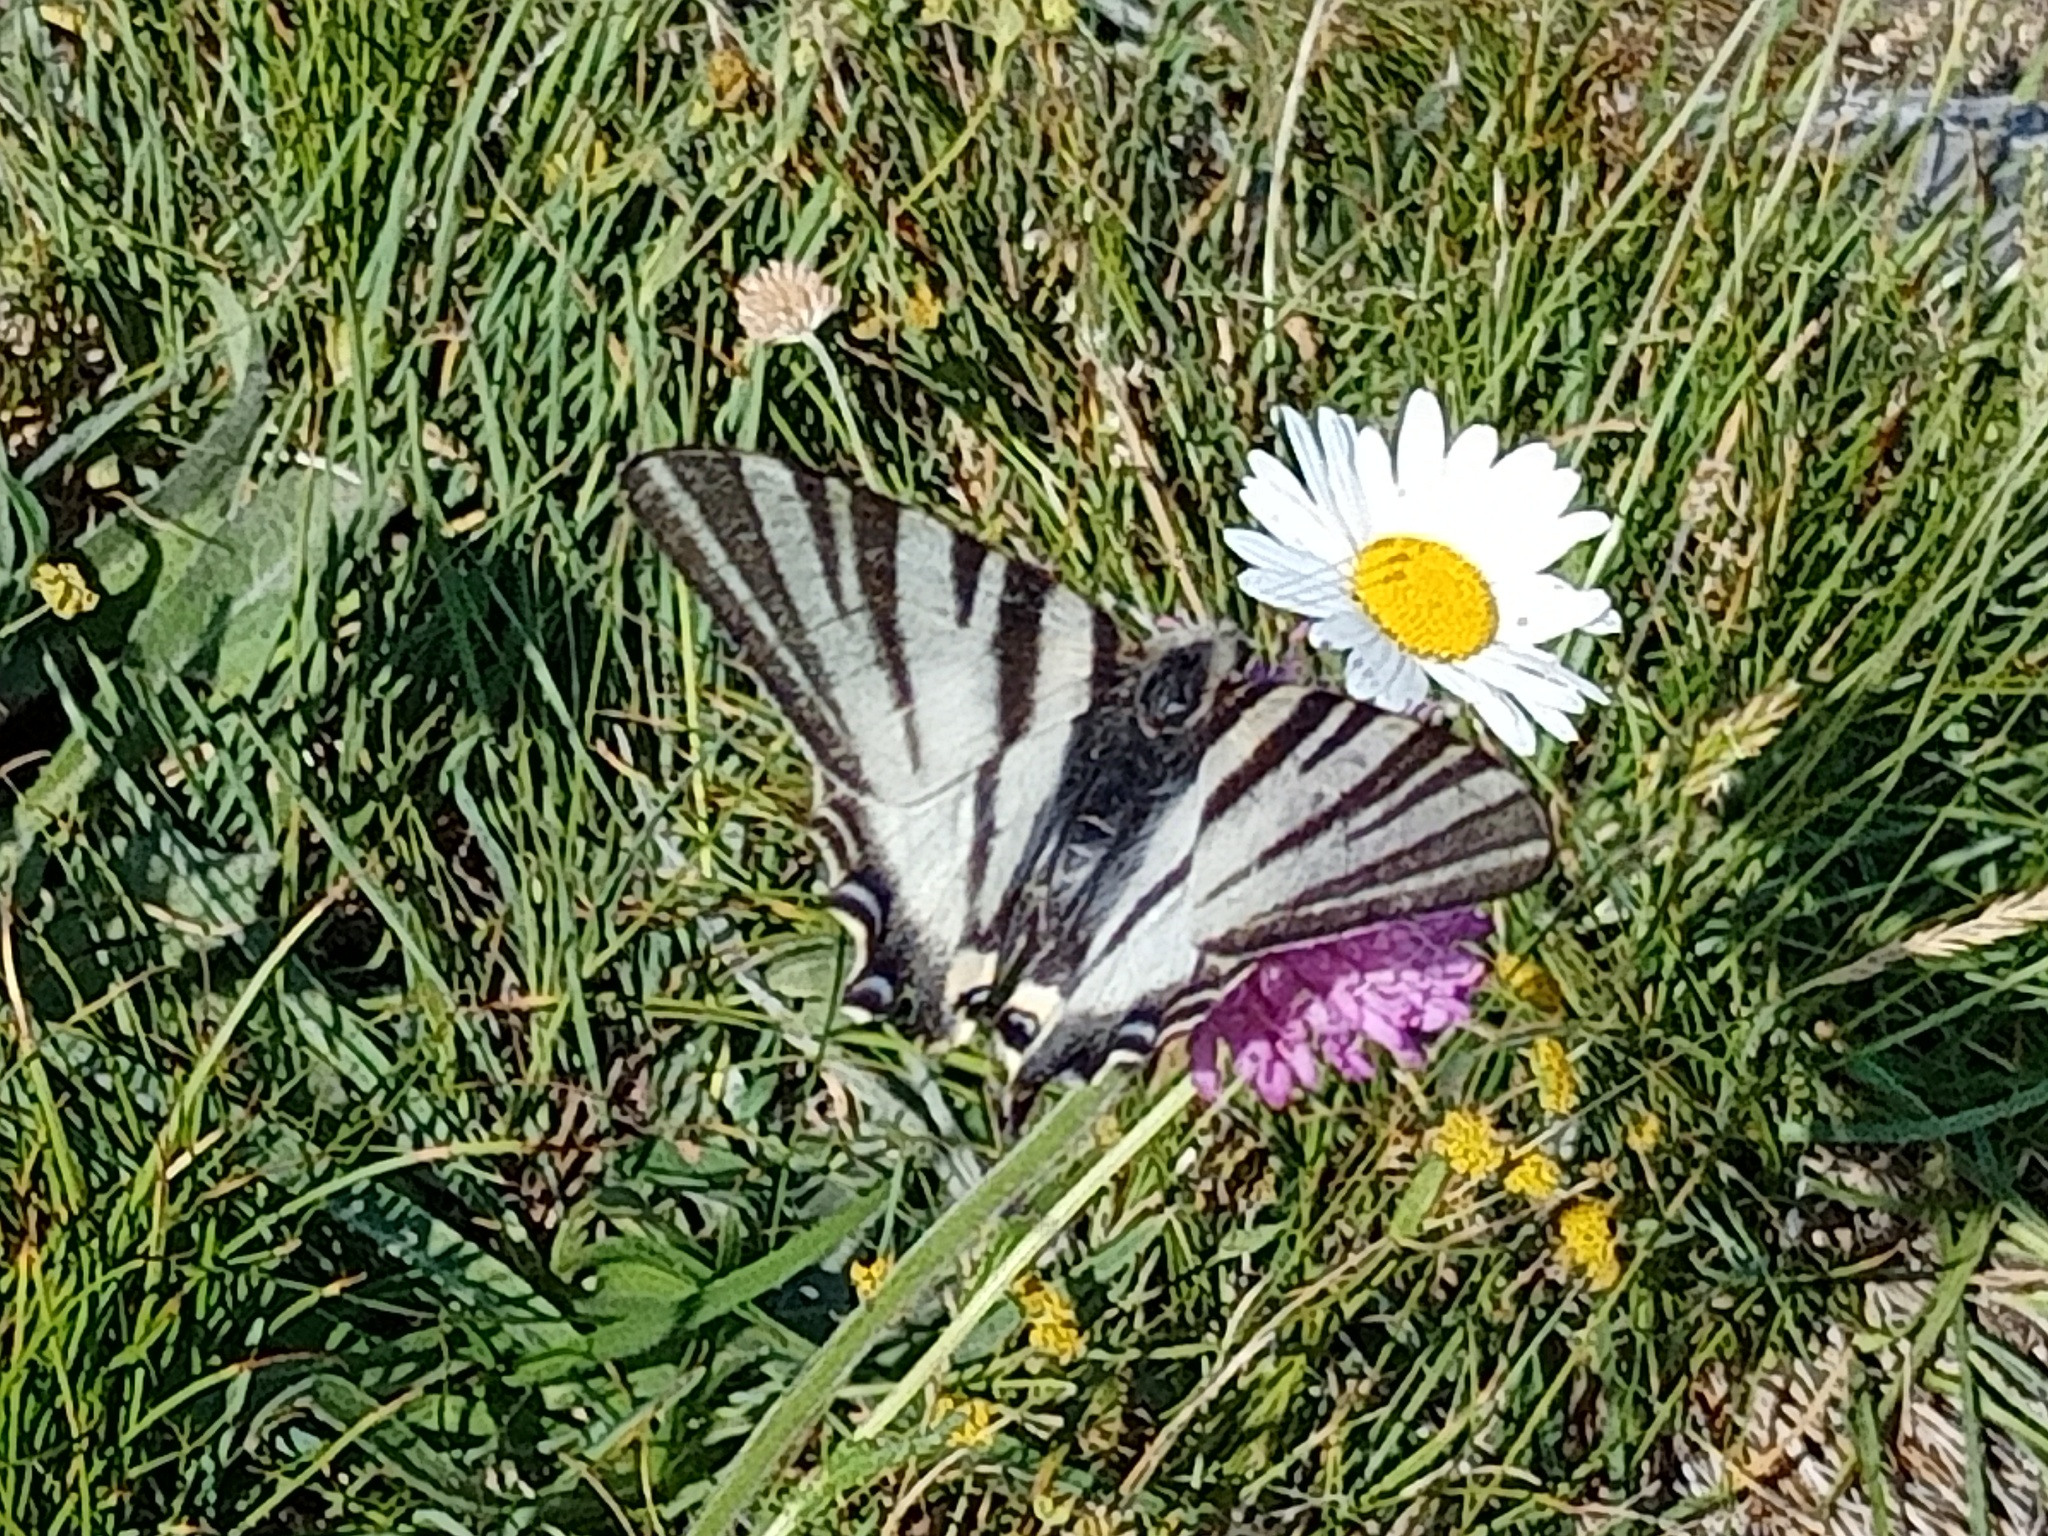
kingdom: Animalia
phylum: Arthropoda
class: Insecta
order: Lepidoptera
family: Papilionidae
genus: Iphiclides
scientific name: Iphiclides podalirius
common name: Scarce swallowtail
